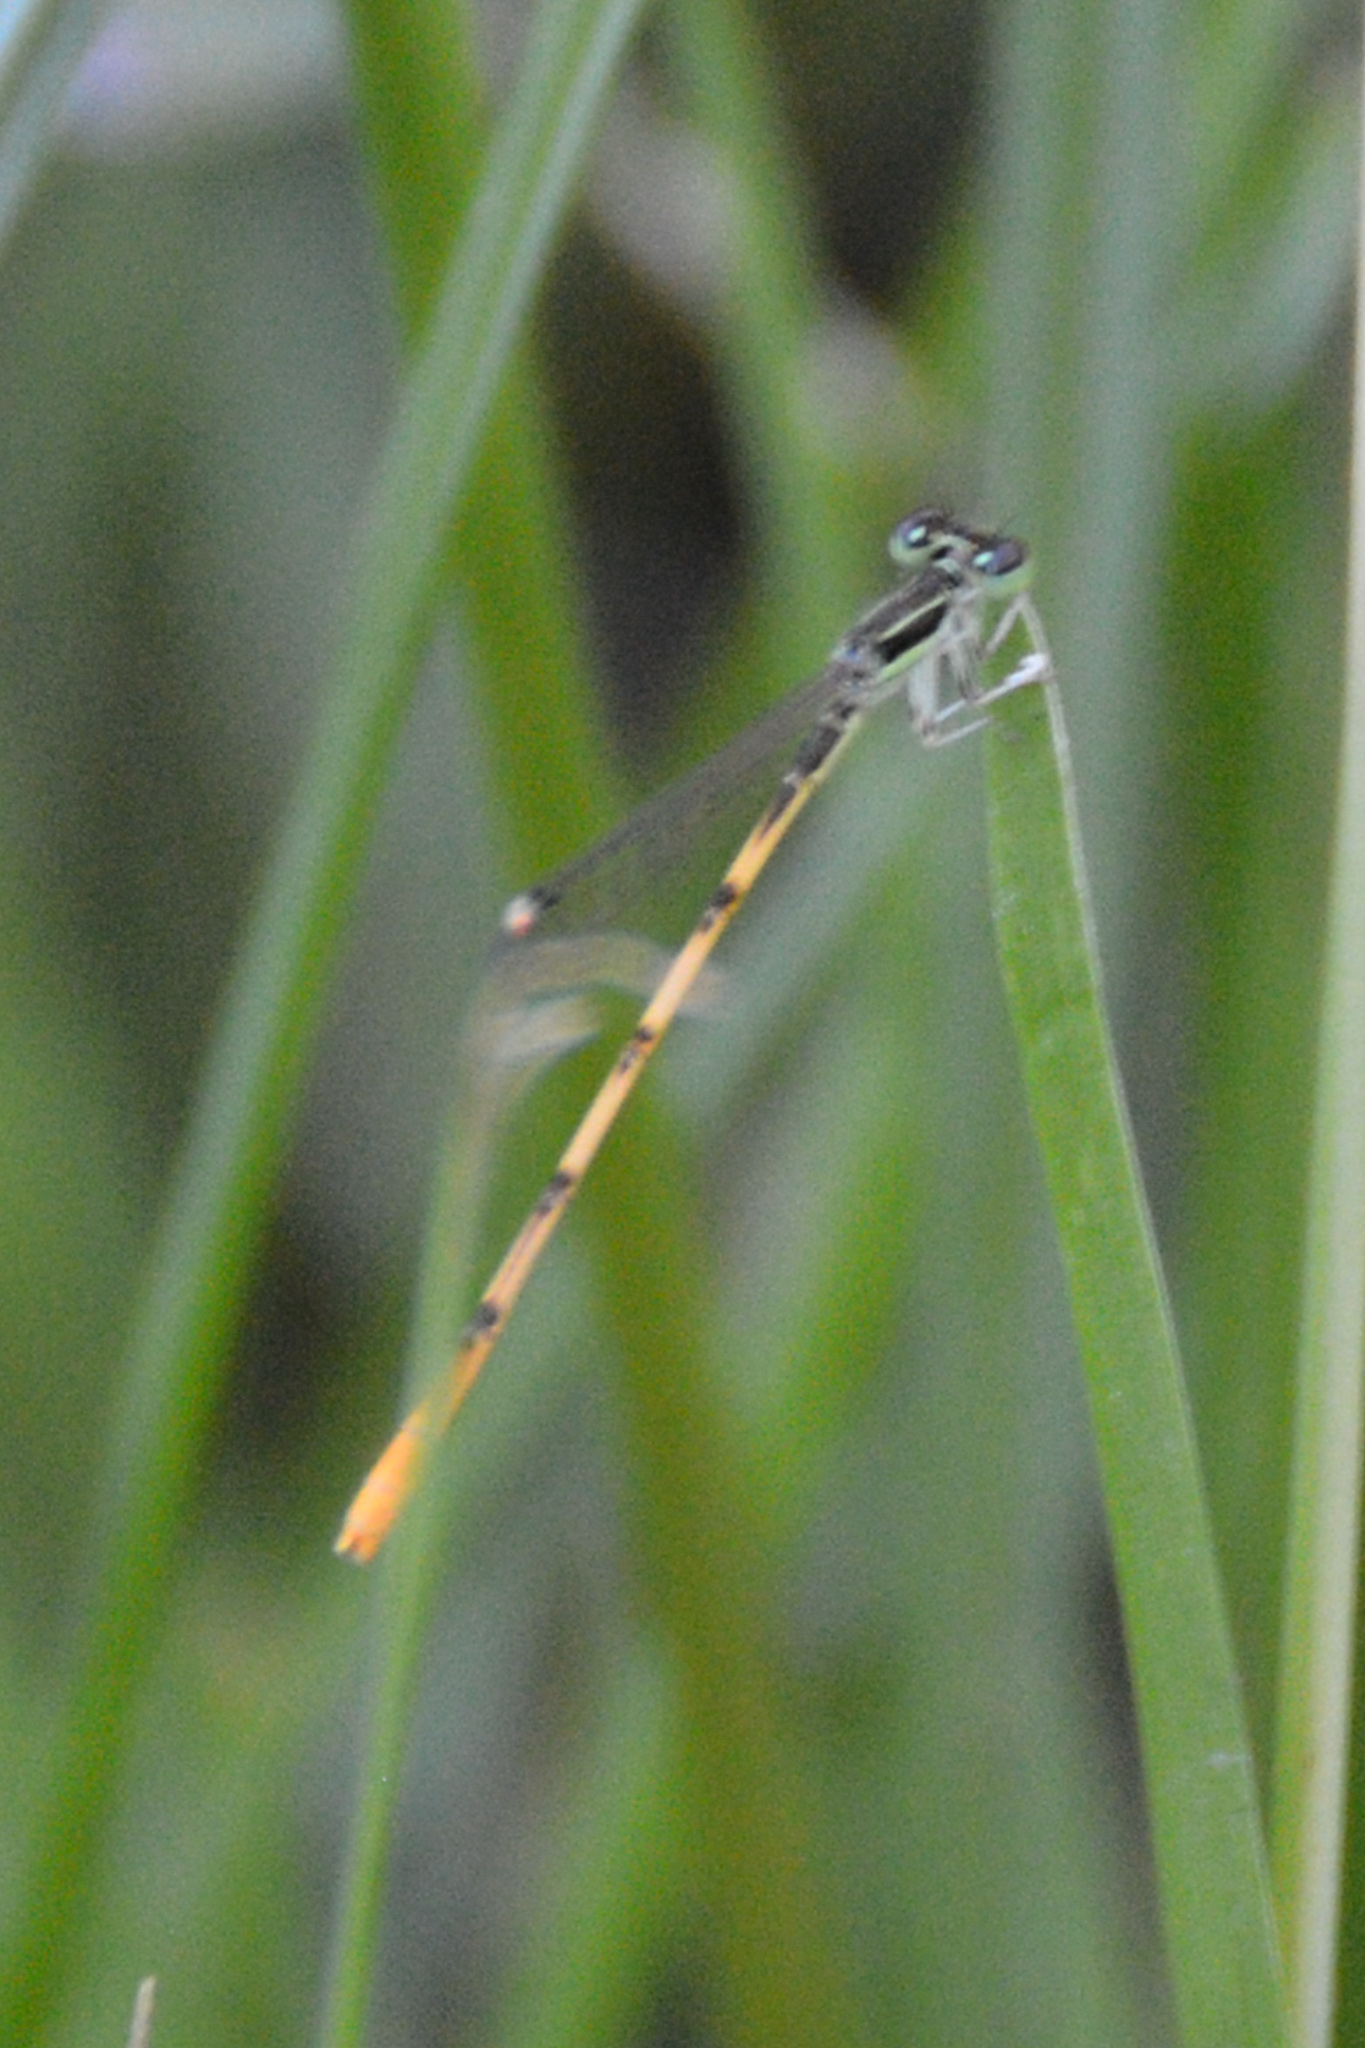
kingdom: Animalia
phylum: Arthropoda
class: Insecta
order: Odonata
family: Coenagrionidae
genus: Ischnura
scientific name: Ischnura hastata
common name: Citrine forktail
